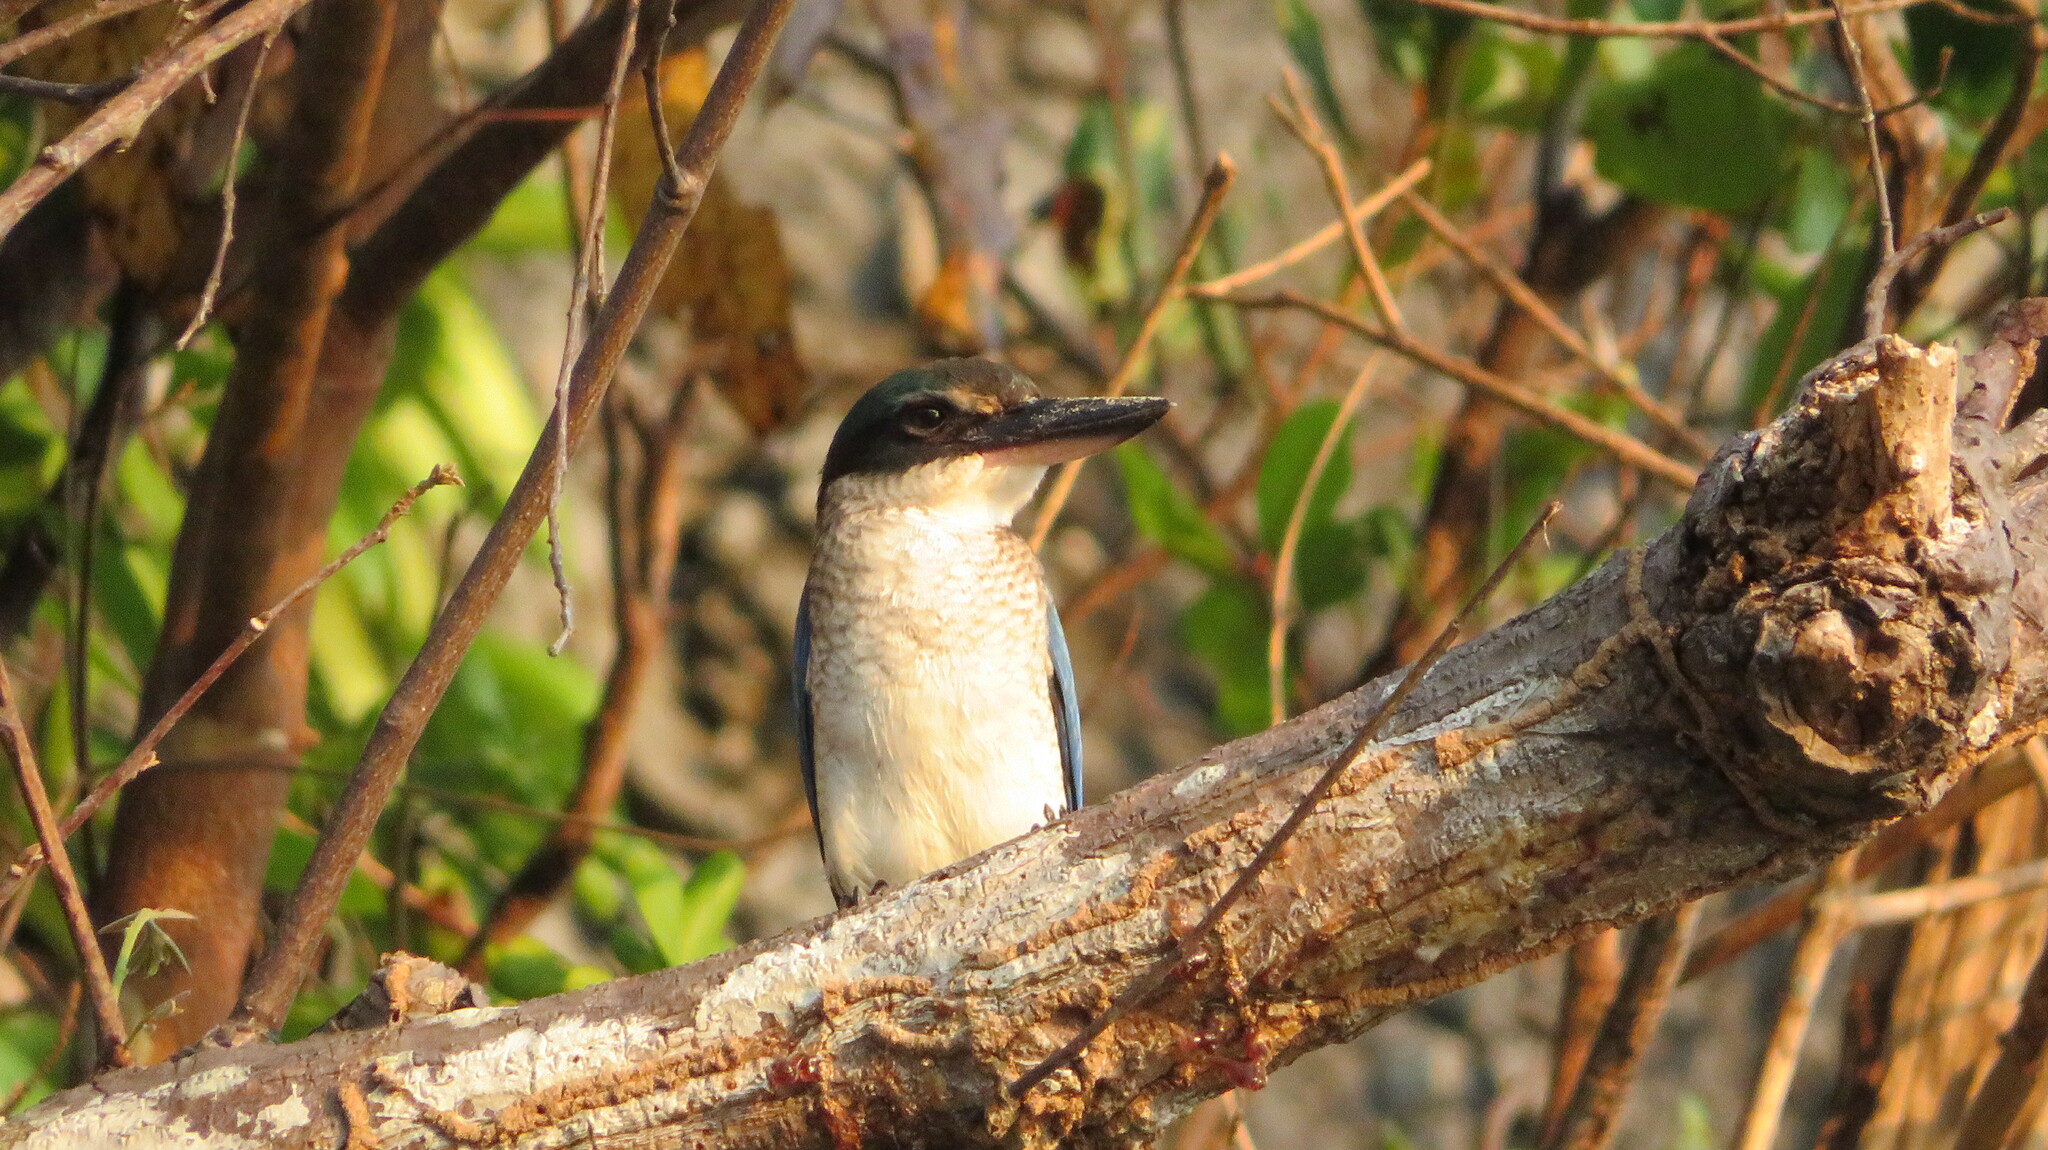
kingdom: Animalia
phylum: Chordata
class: Aves
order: Coraciiformes
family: Alcedinidae
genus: Todiramphus
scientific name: Todiramphus chloris
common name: Collared kingfisher
